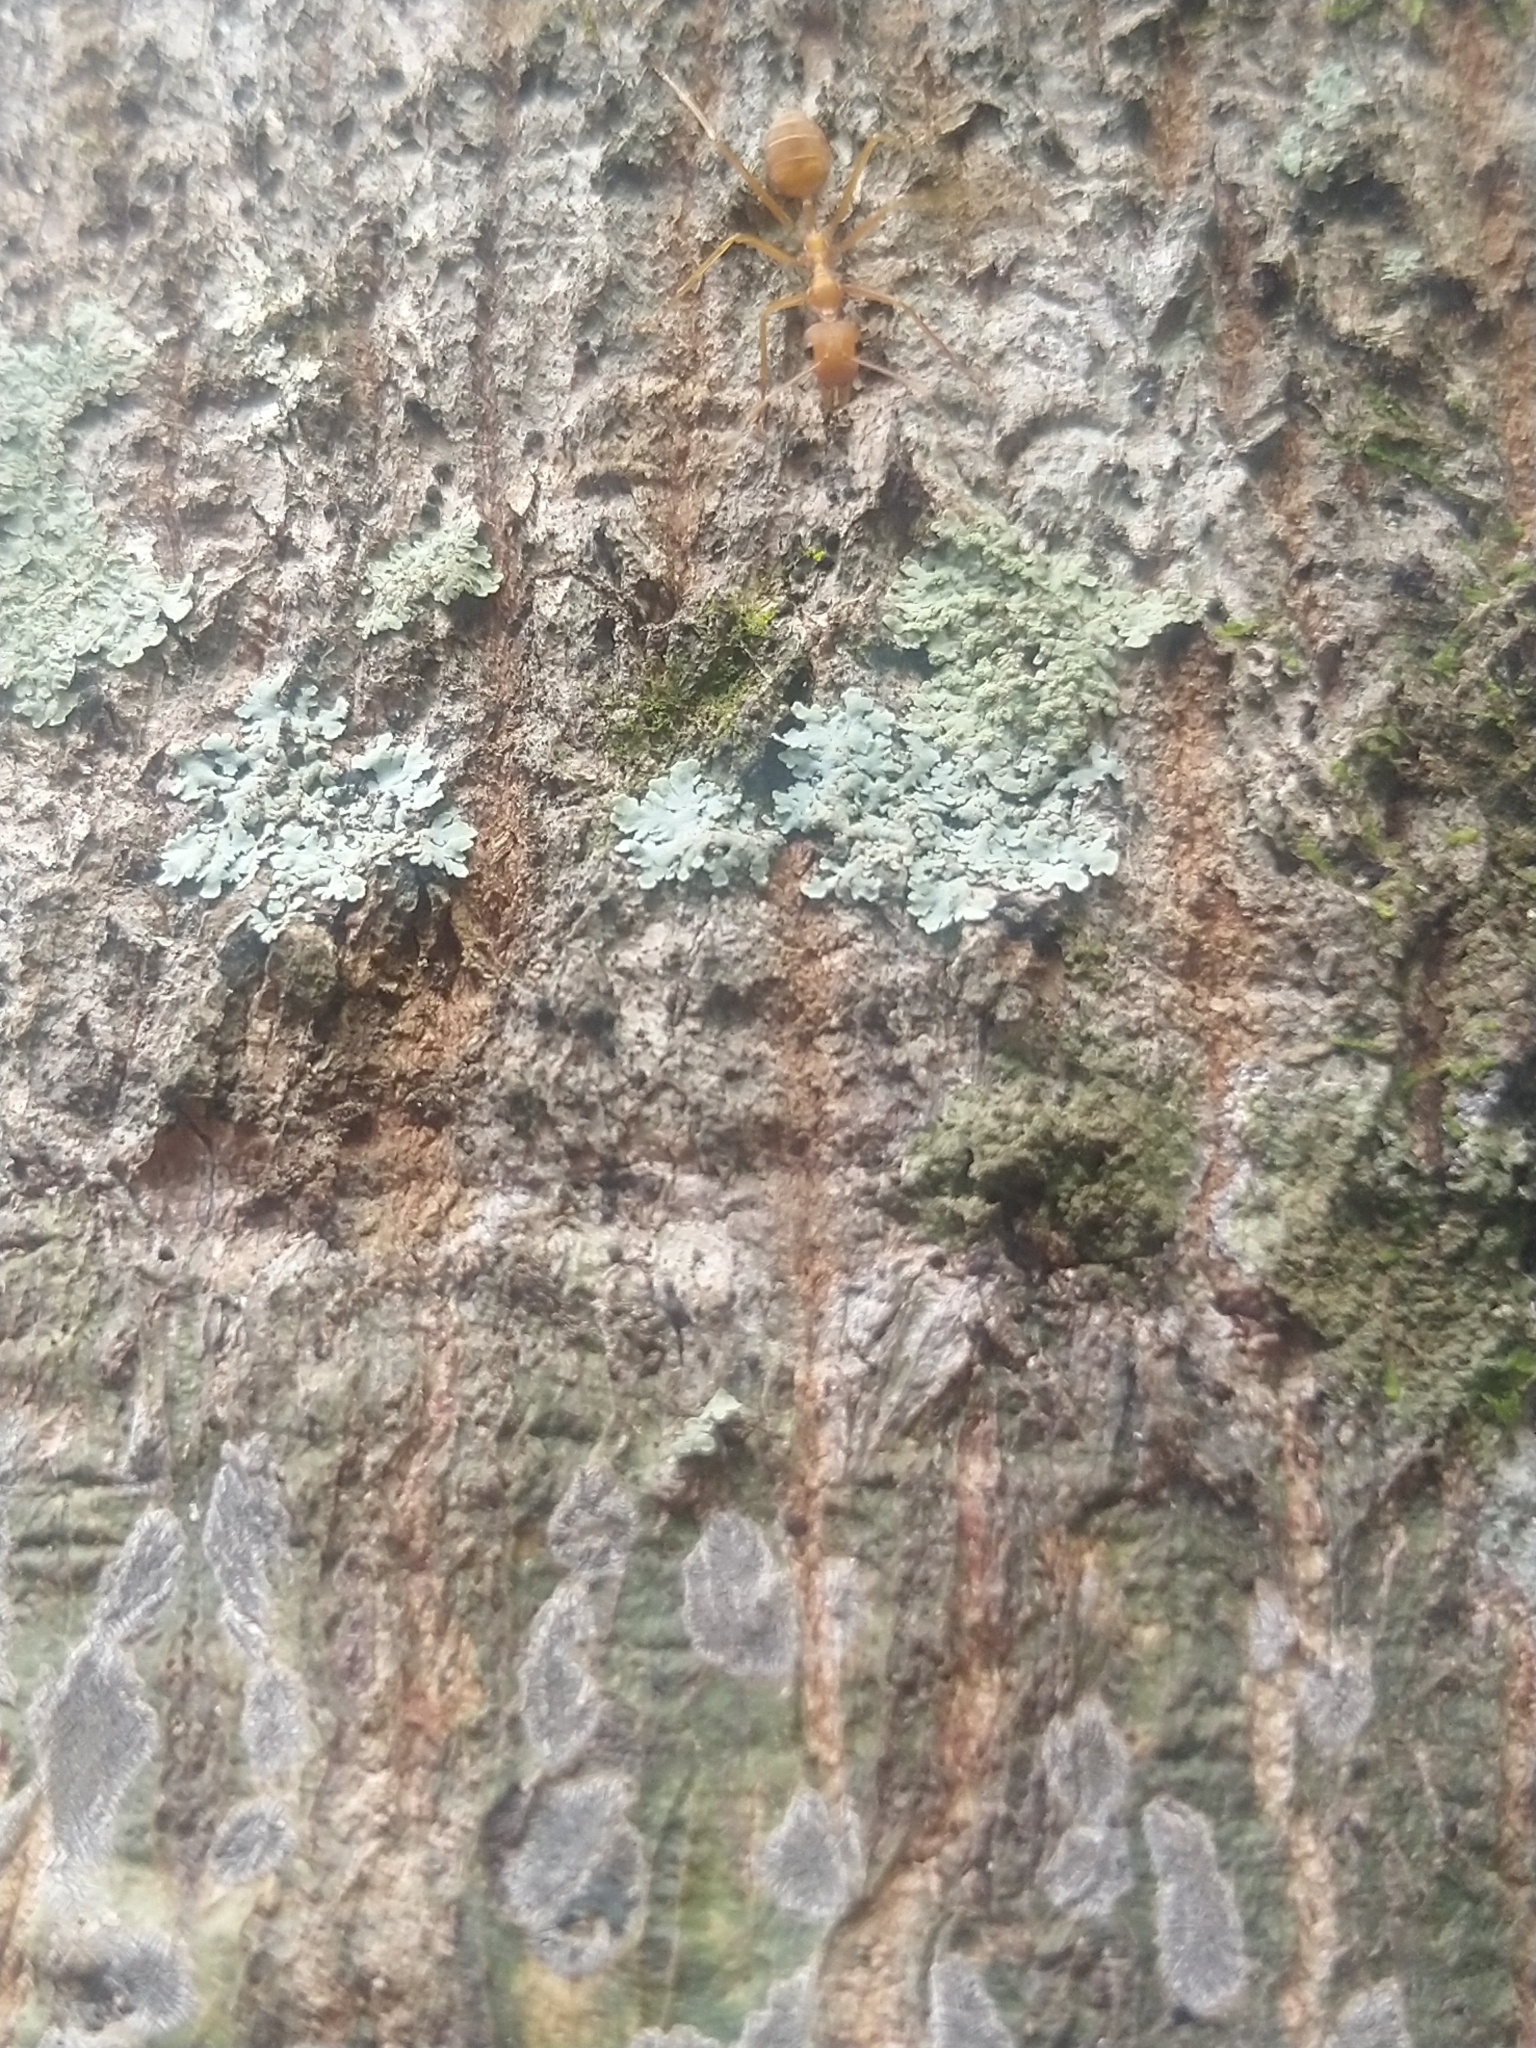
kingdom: Animalia
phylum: Arthropoda
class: Insecta
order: Hymenoptera
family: Formicidae
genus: Oecophylla
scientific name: Oecophylla smaragdina
